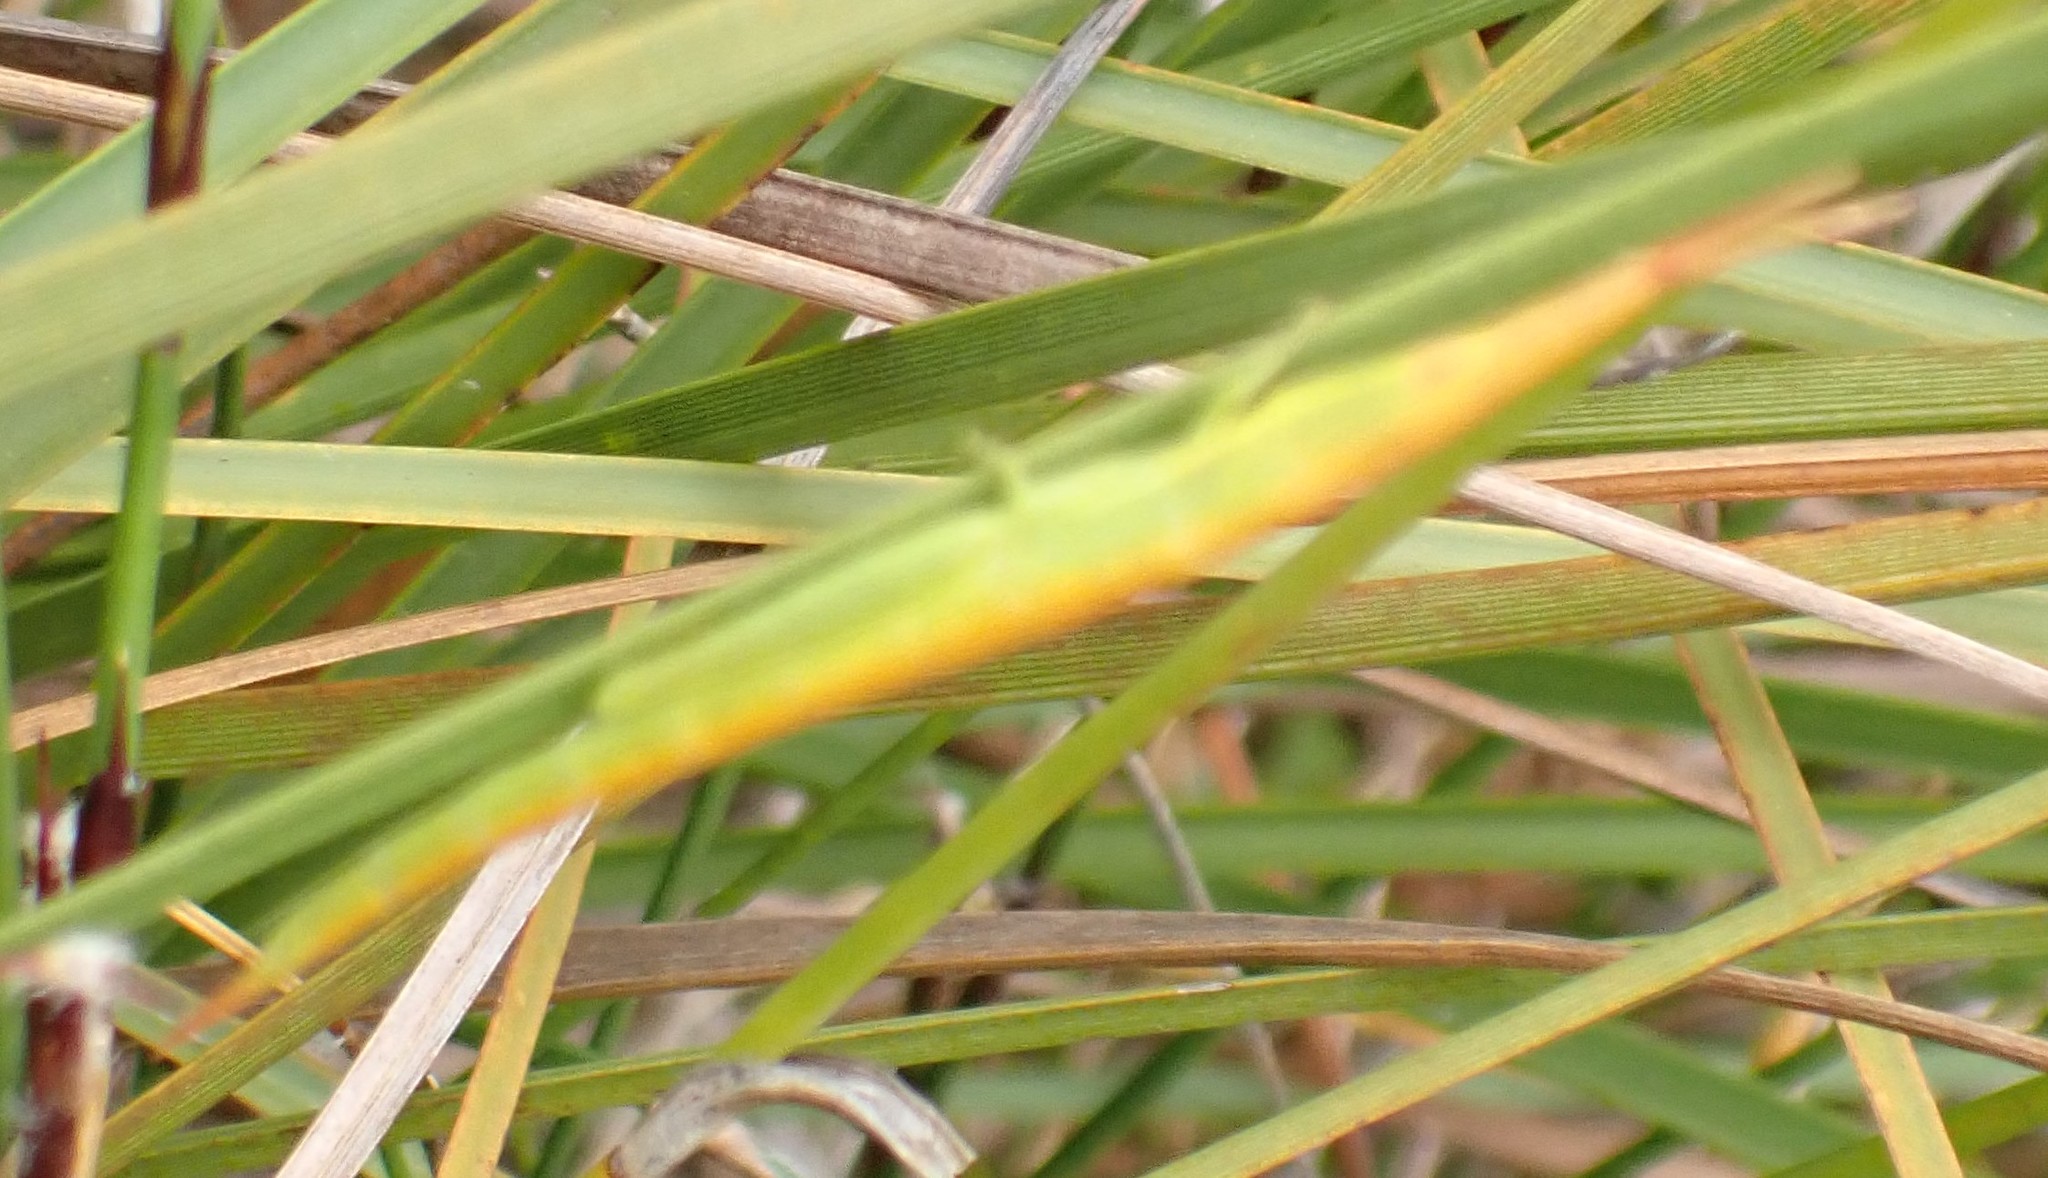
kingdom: Animalia
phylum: Arthropoda
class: Insecta
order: Orthoptera
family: Pyrgomorphidae
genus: Psednura
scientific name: Psednura pedestris
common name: Common psednura
